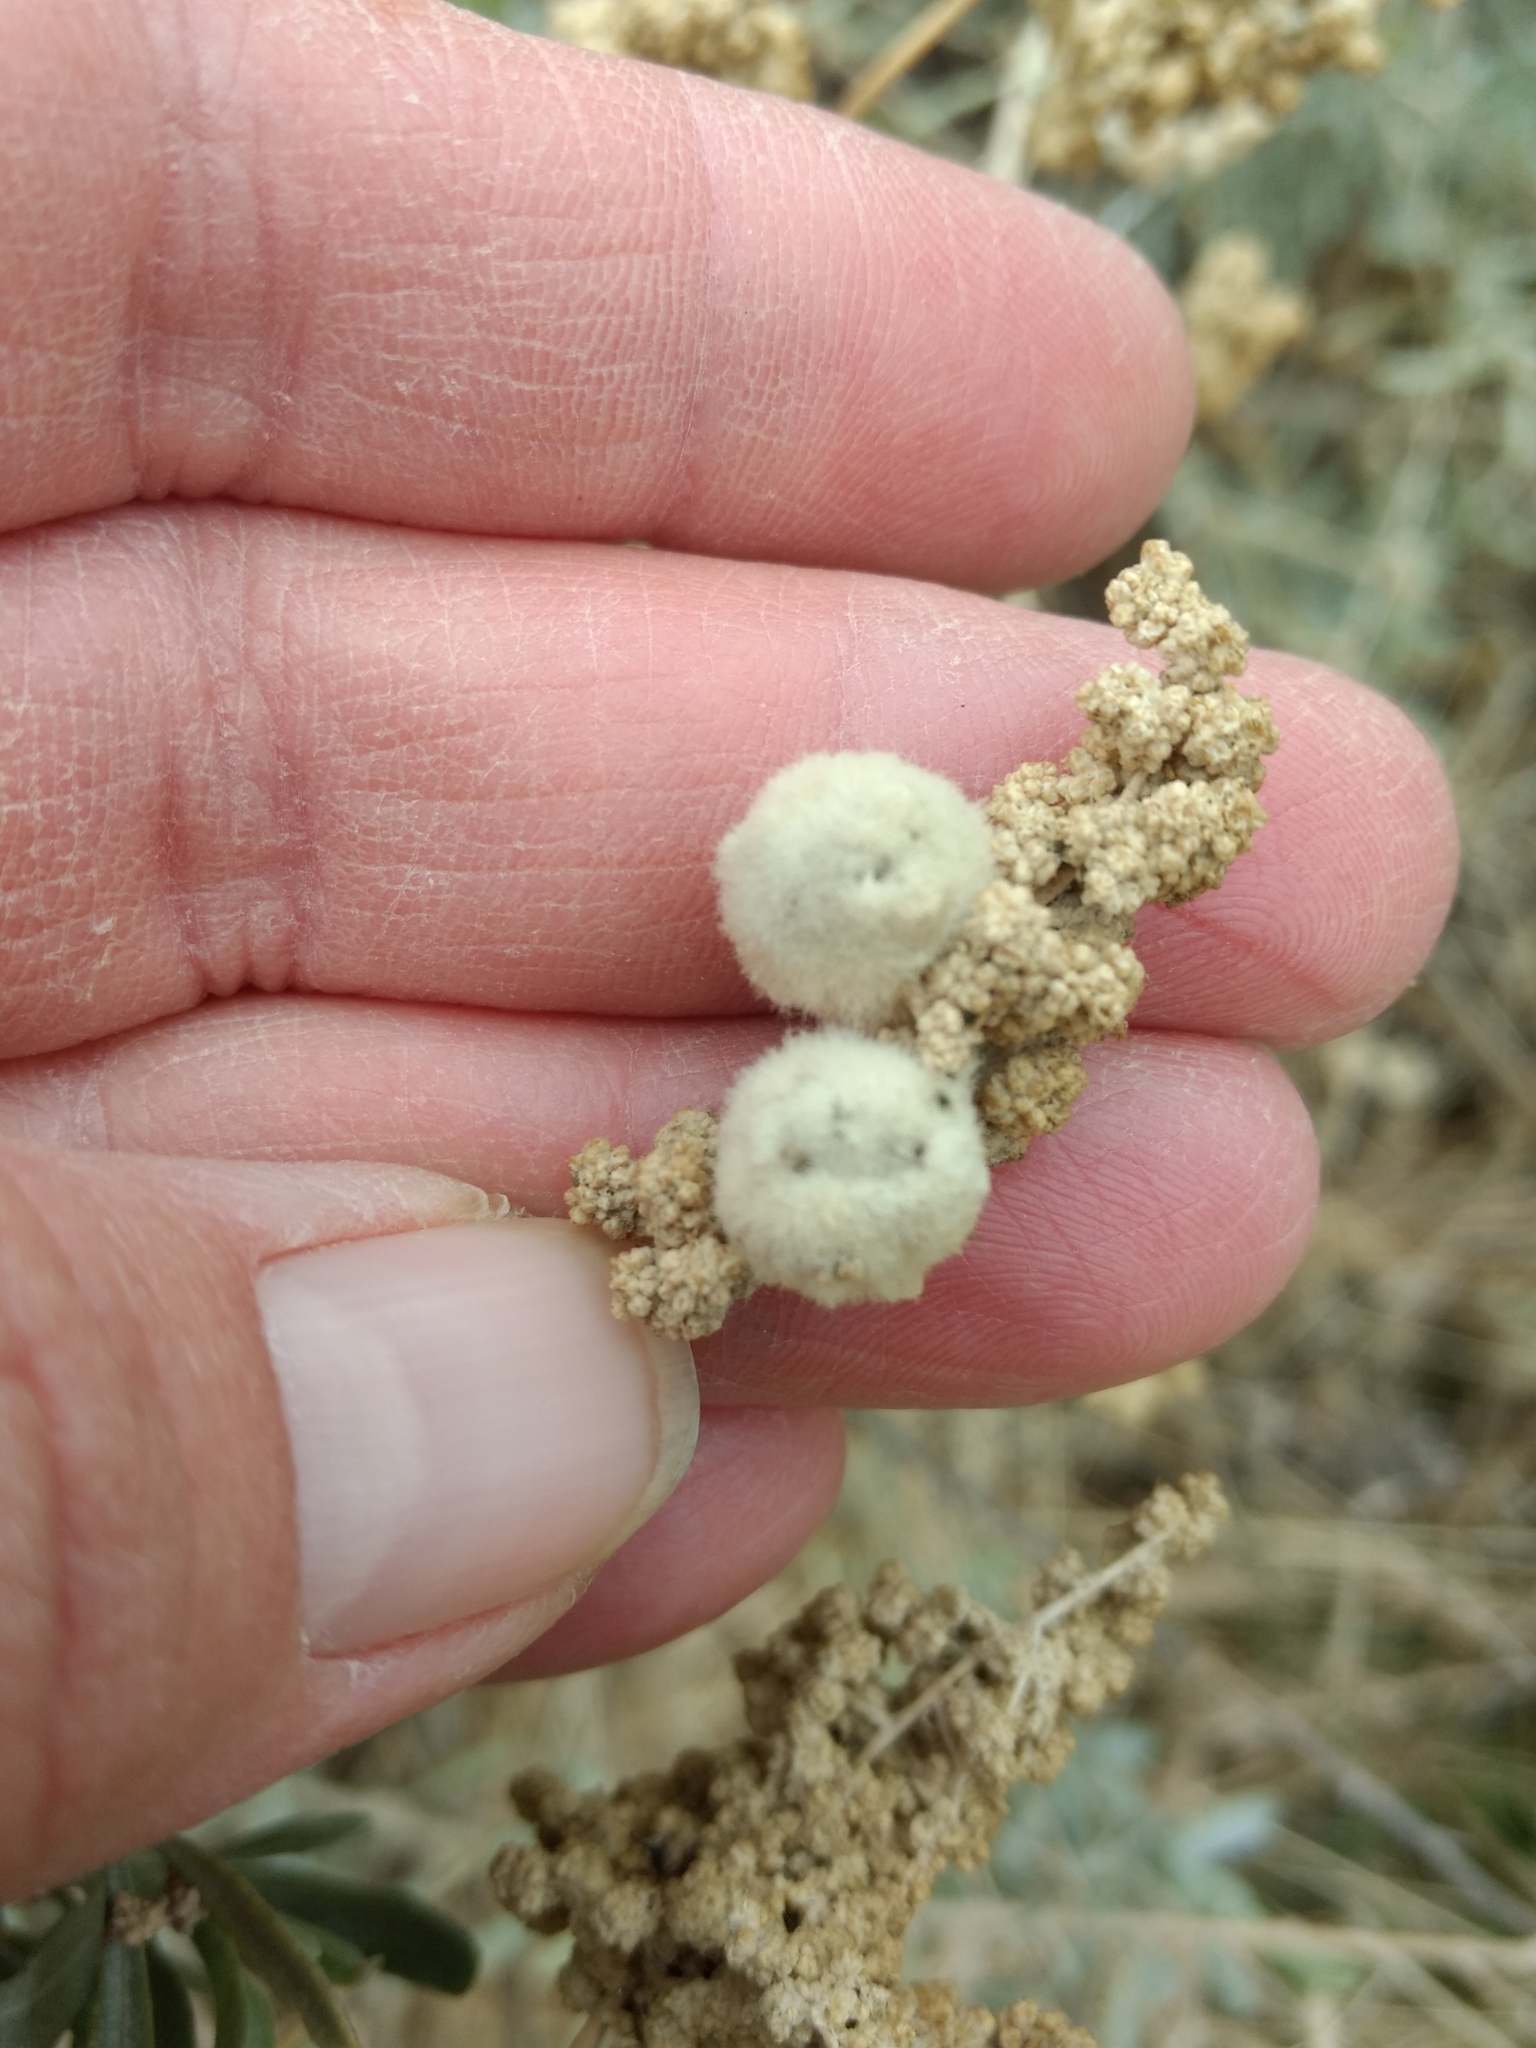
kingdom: Animalia
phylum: Arthropoda
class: Insecta
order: Diptera
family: Cecidomyiidae
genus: Asphondylia
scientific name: Asphondylia neomexicana
